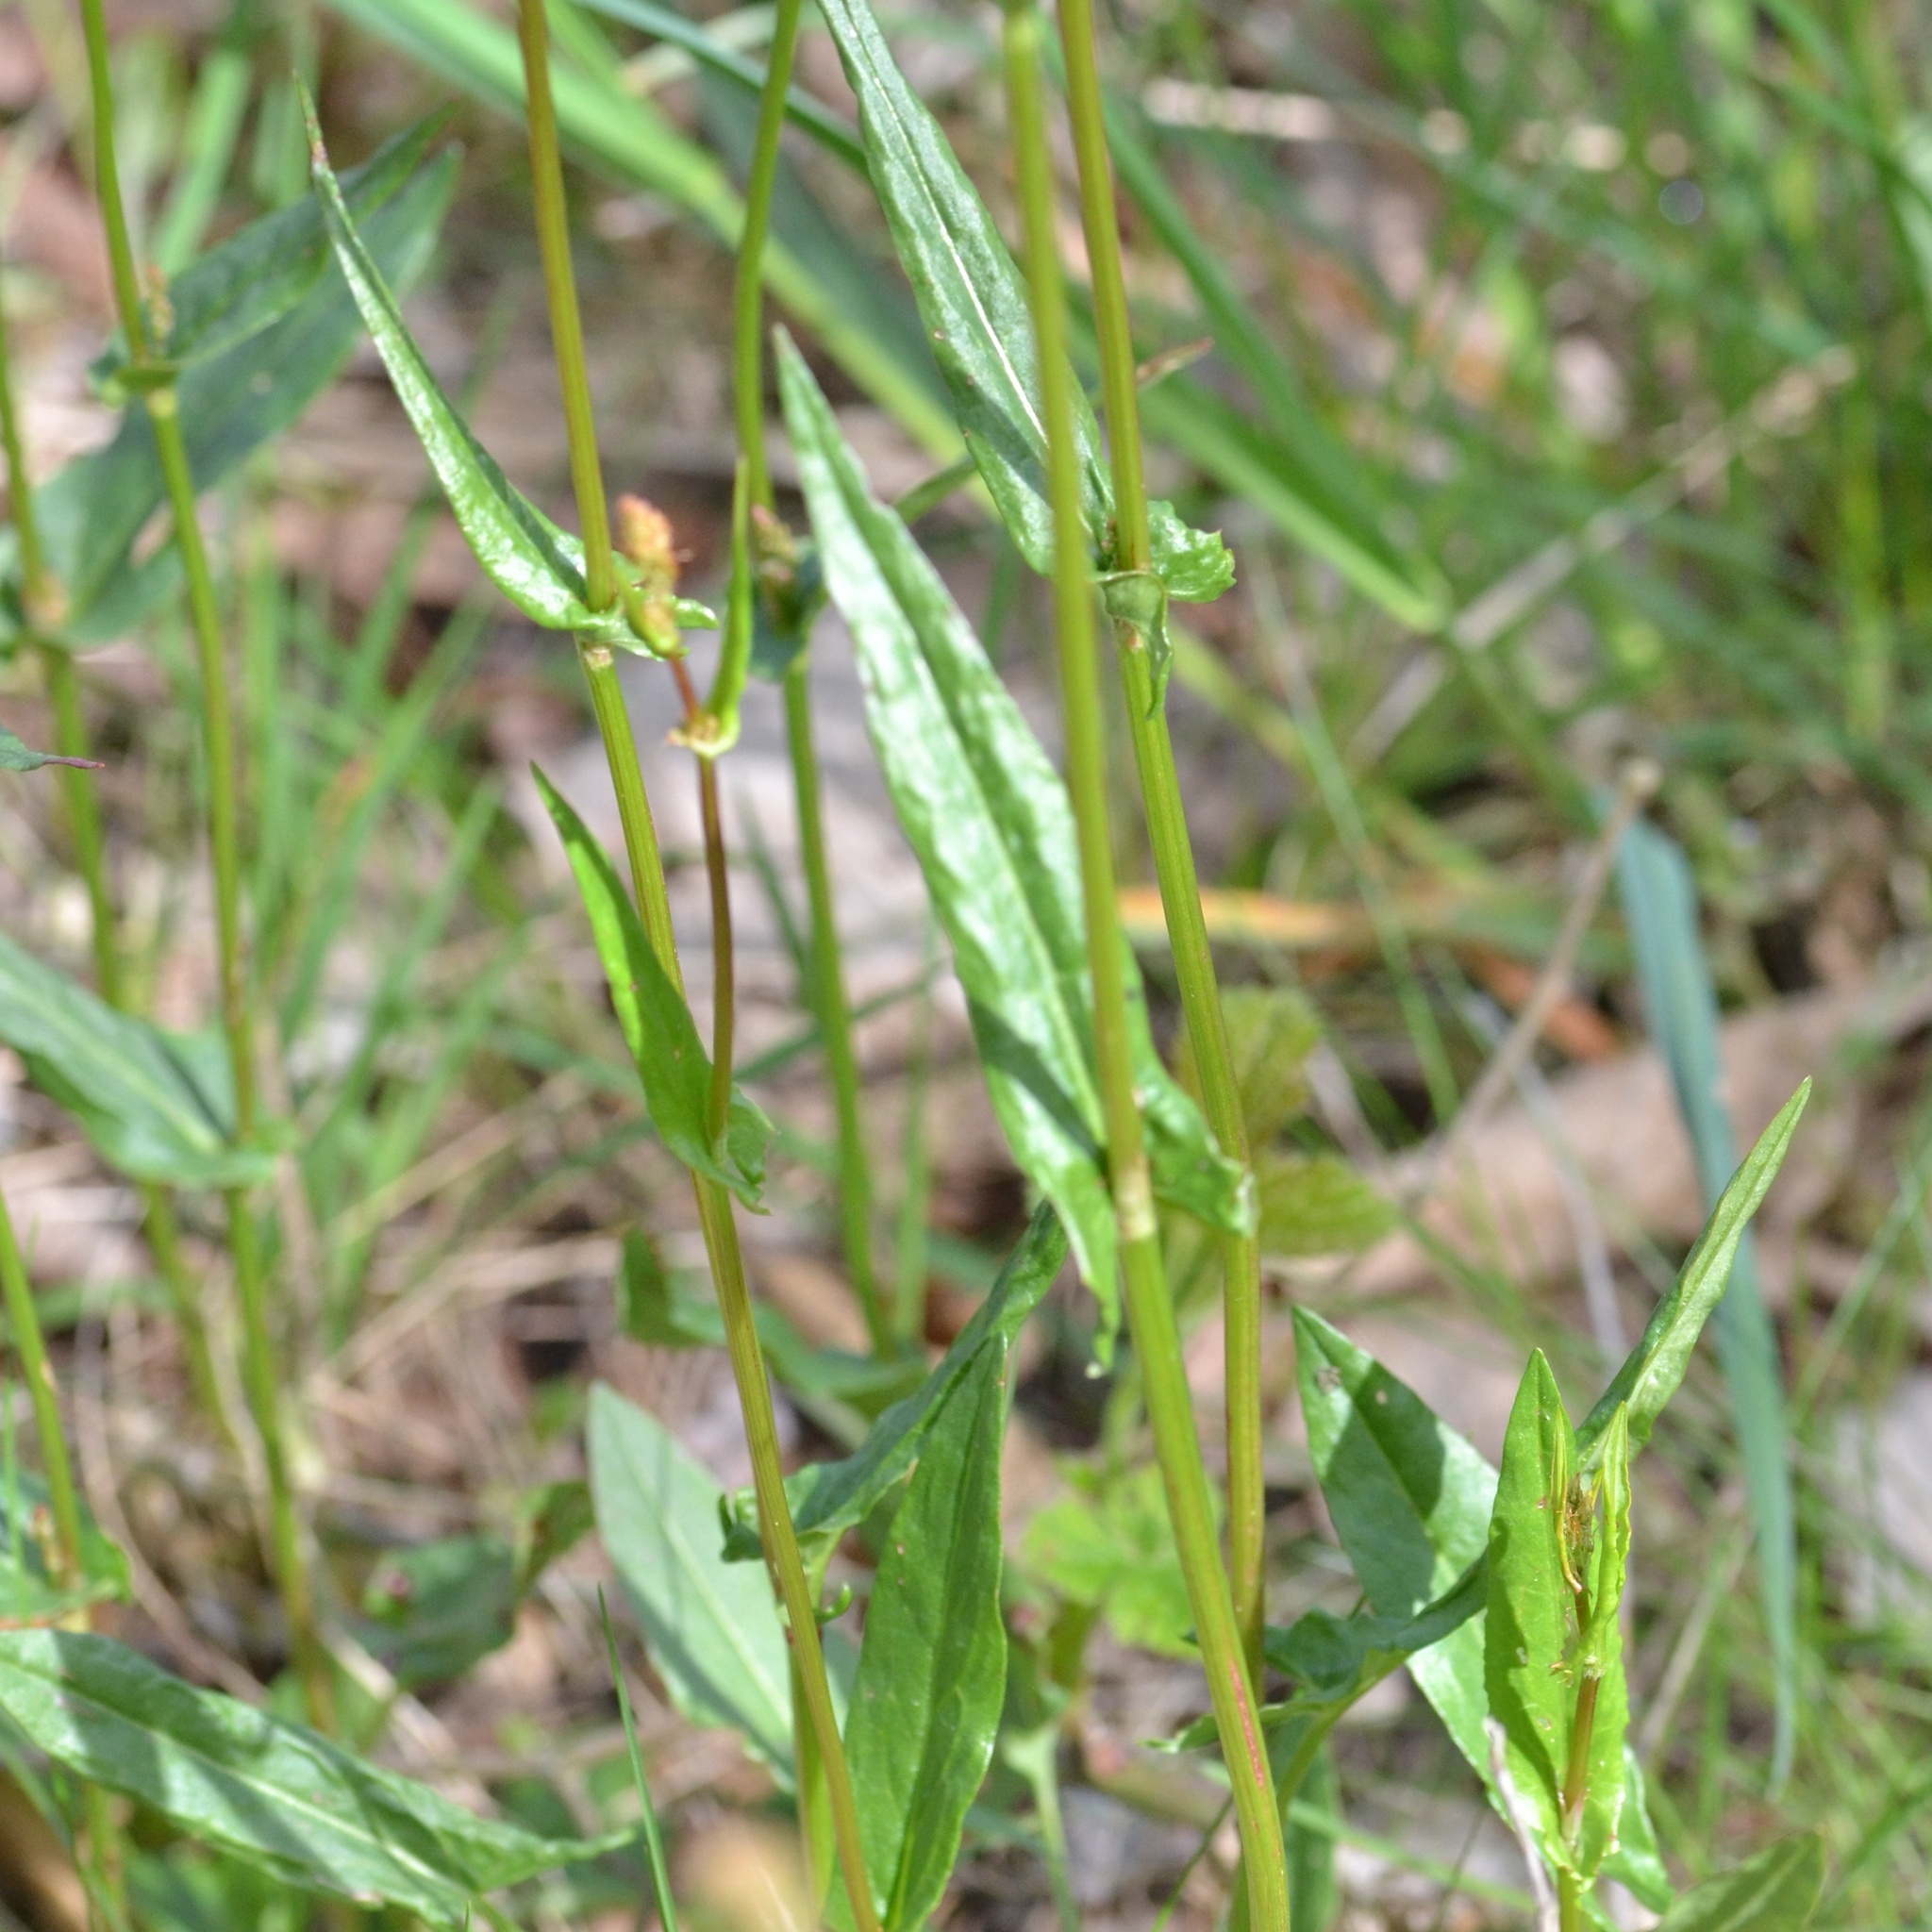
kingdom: Plantae
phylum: Tracheophyta
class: Magnoliopsida
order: Caryophyllales
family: Polygonaceae
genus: Rumex
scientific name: Rumex acetosa
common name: Garden sorrel
